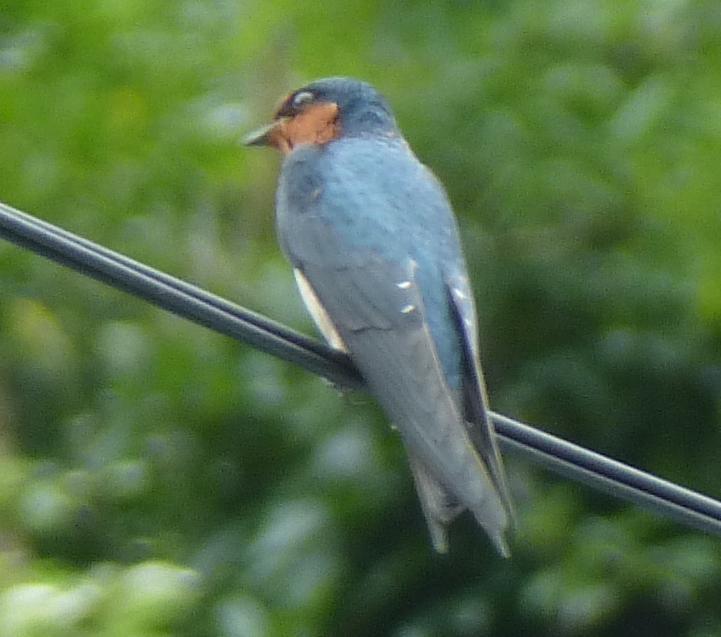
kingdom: Animalia
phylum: Chordata
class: Aves
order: Passeriformes
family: Hirundinidae
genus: Hirundo
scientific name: Hirundo tahitica
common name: Pacific swallow
